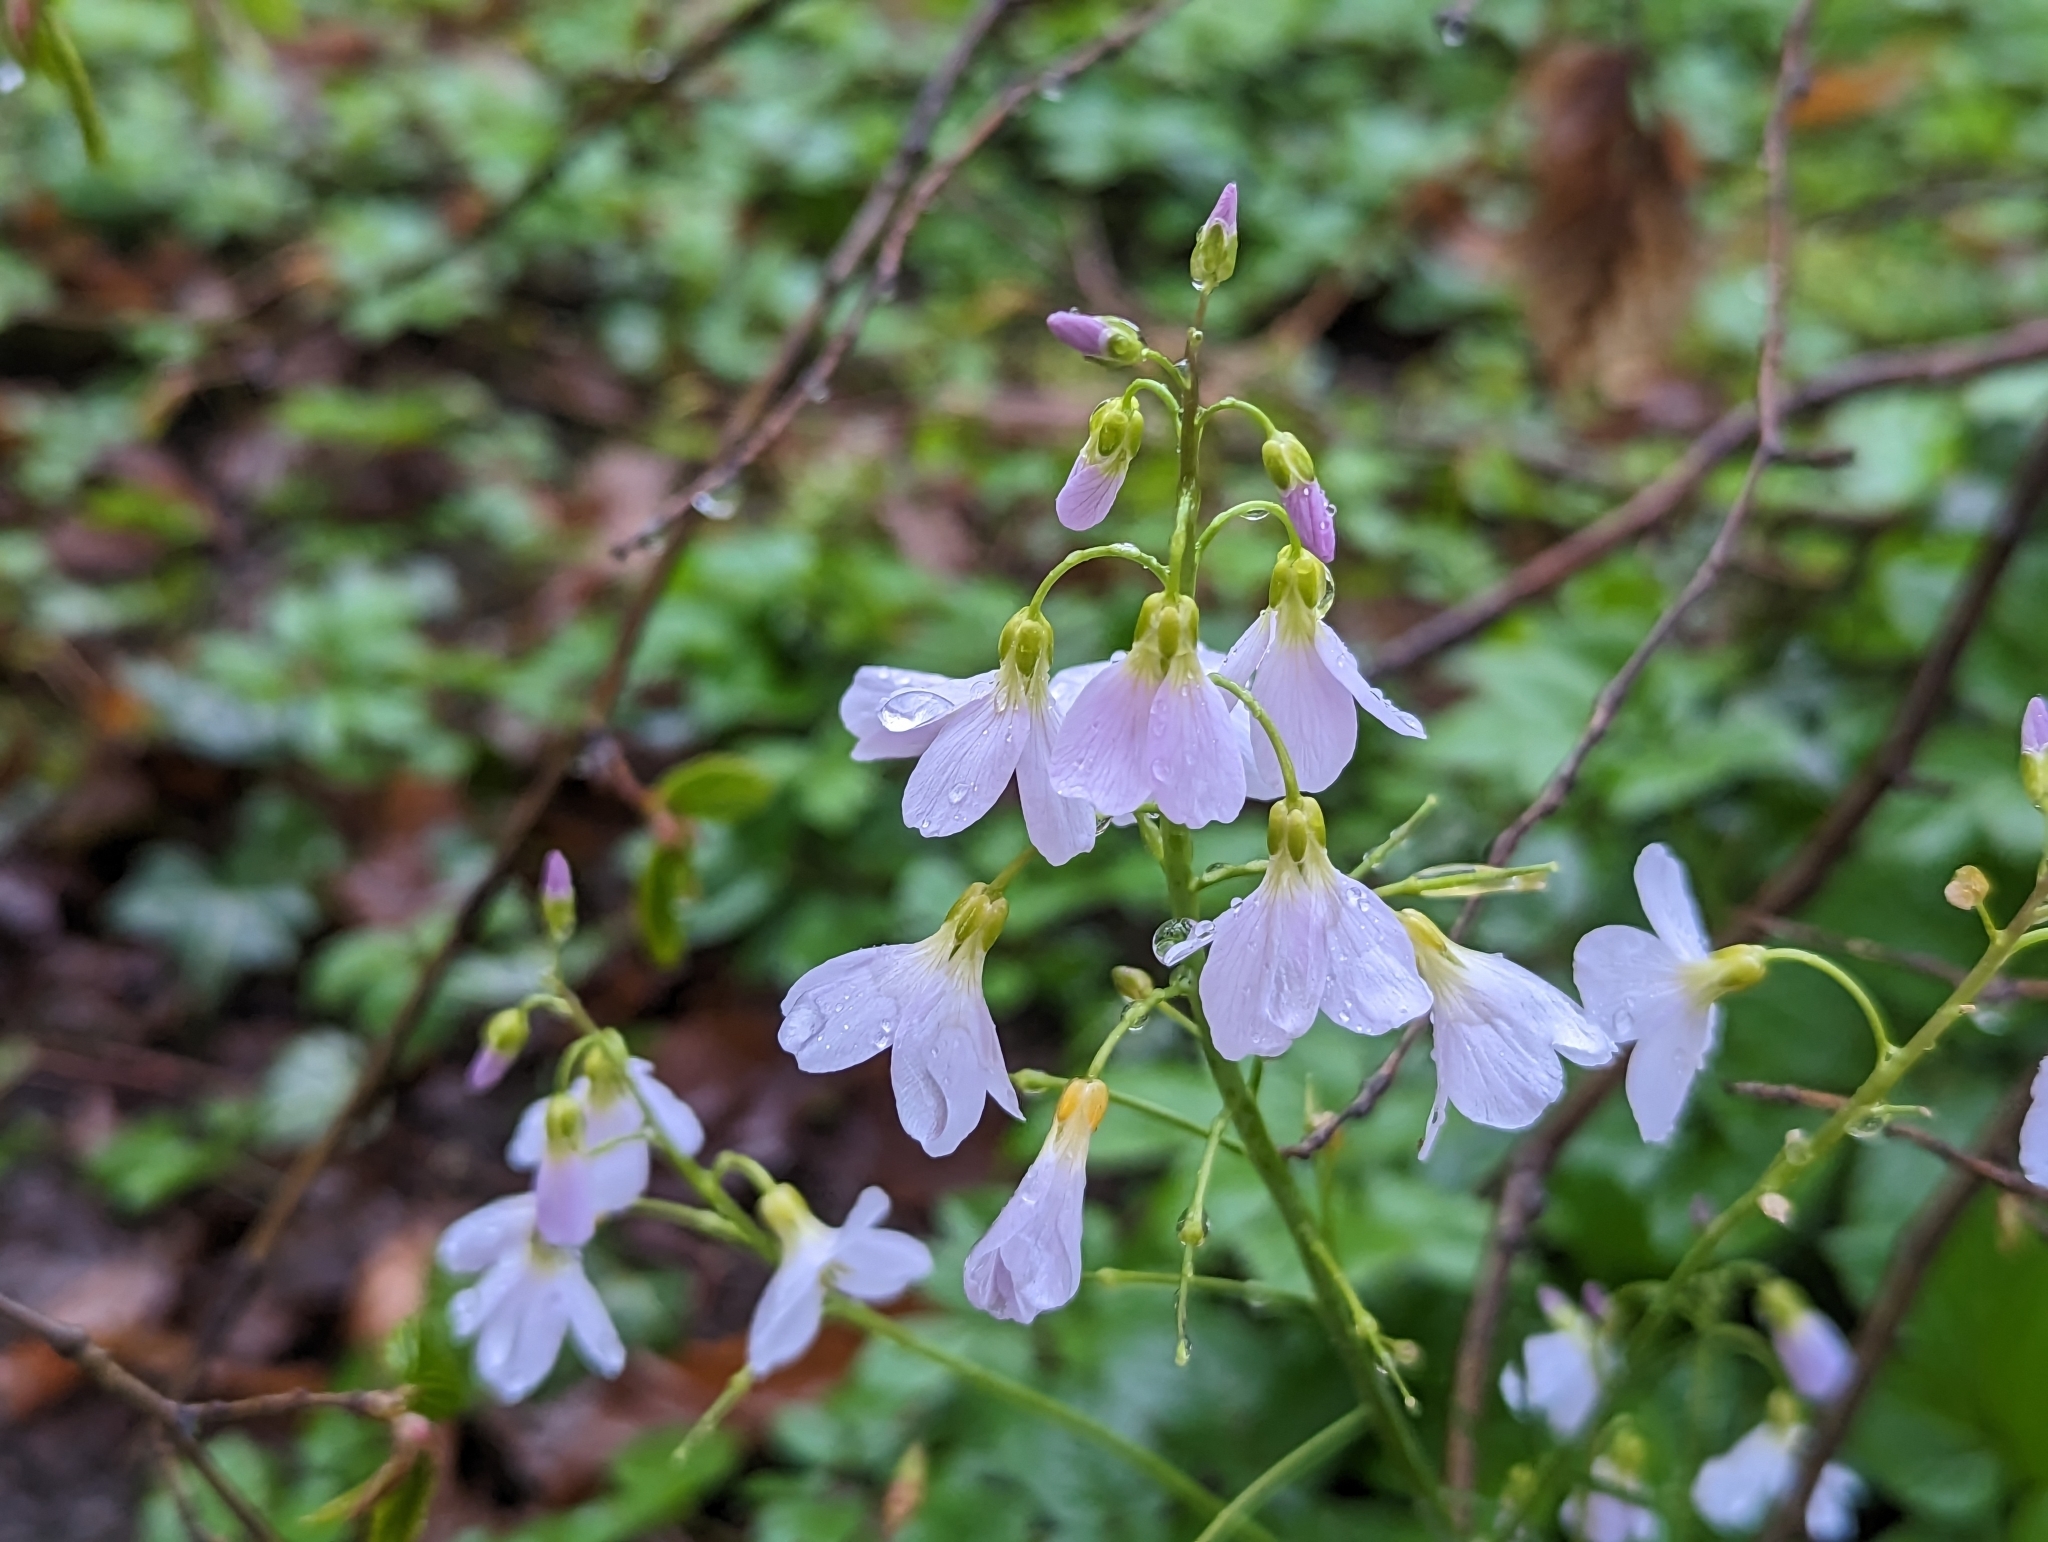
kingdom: Plantae
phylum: Tracheophyta
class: Magnoliopsida
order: Brassicales
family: Brassicaceae
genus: Cardamine
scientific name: Cardamine pratensis
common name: Cuckoo flower
